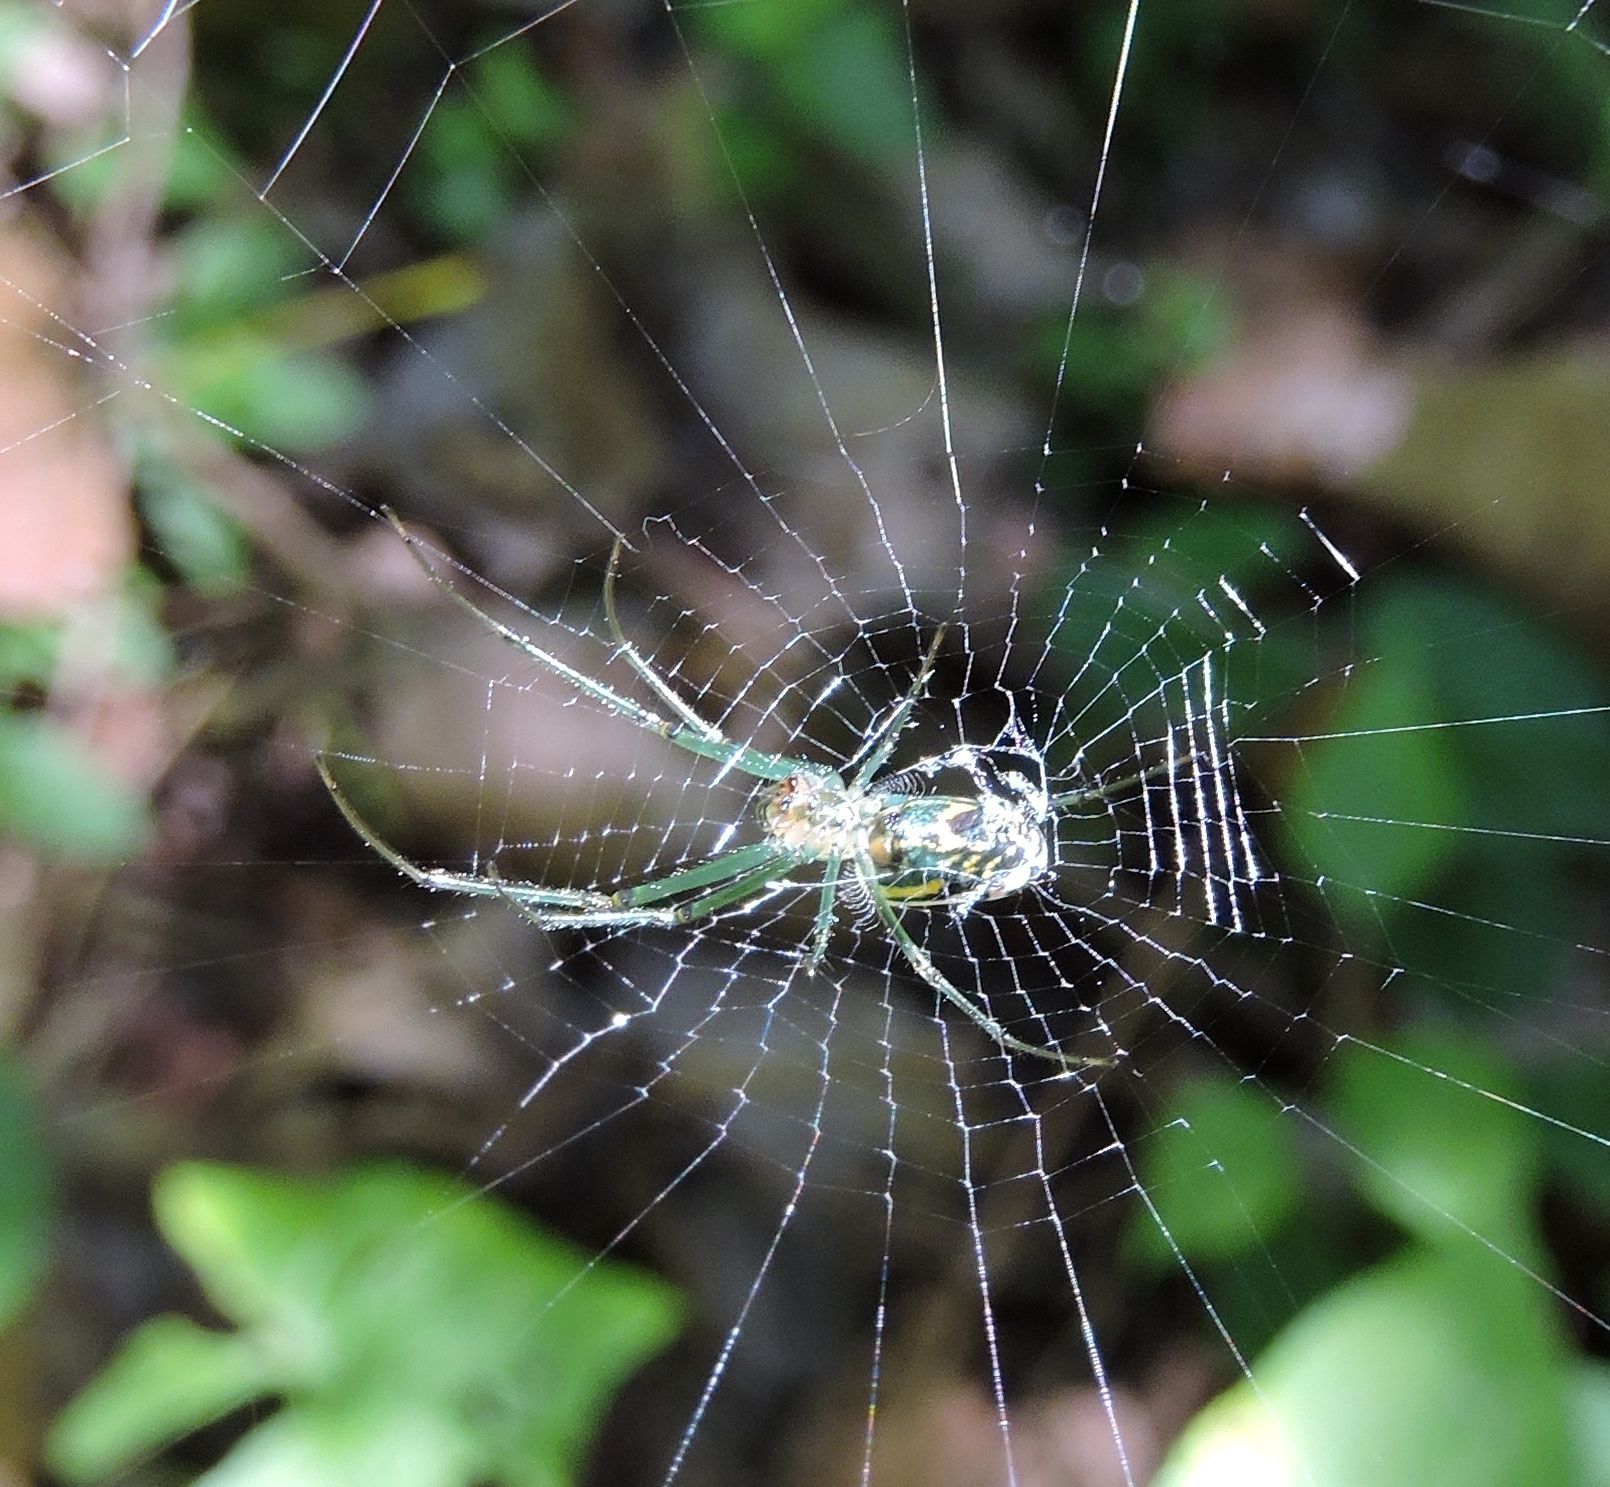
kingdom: Animalia
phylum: Arthropoda
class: Arachnida
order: Araneae
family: Tetragnathidae
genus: Leucauge
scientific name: Leucauge venusta
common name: Longjawed orb weavers
